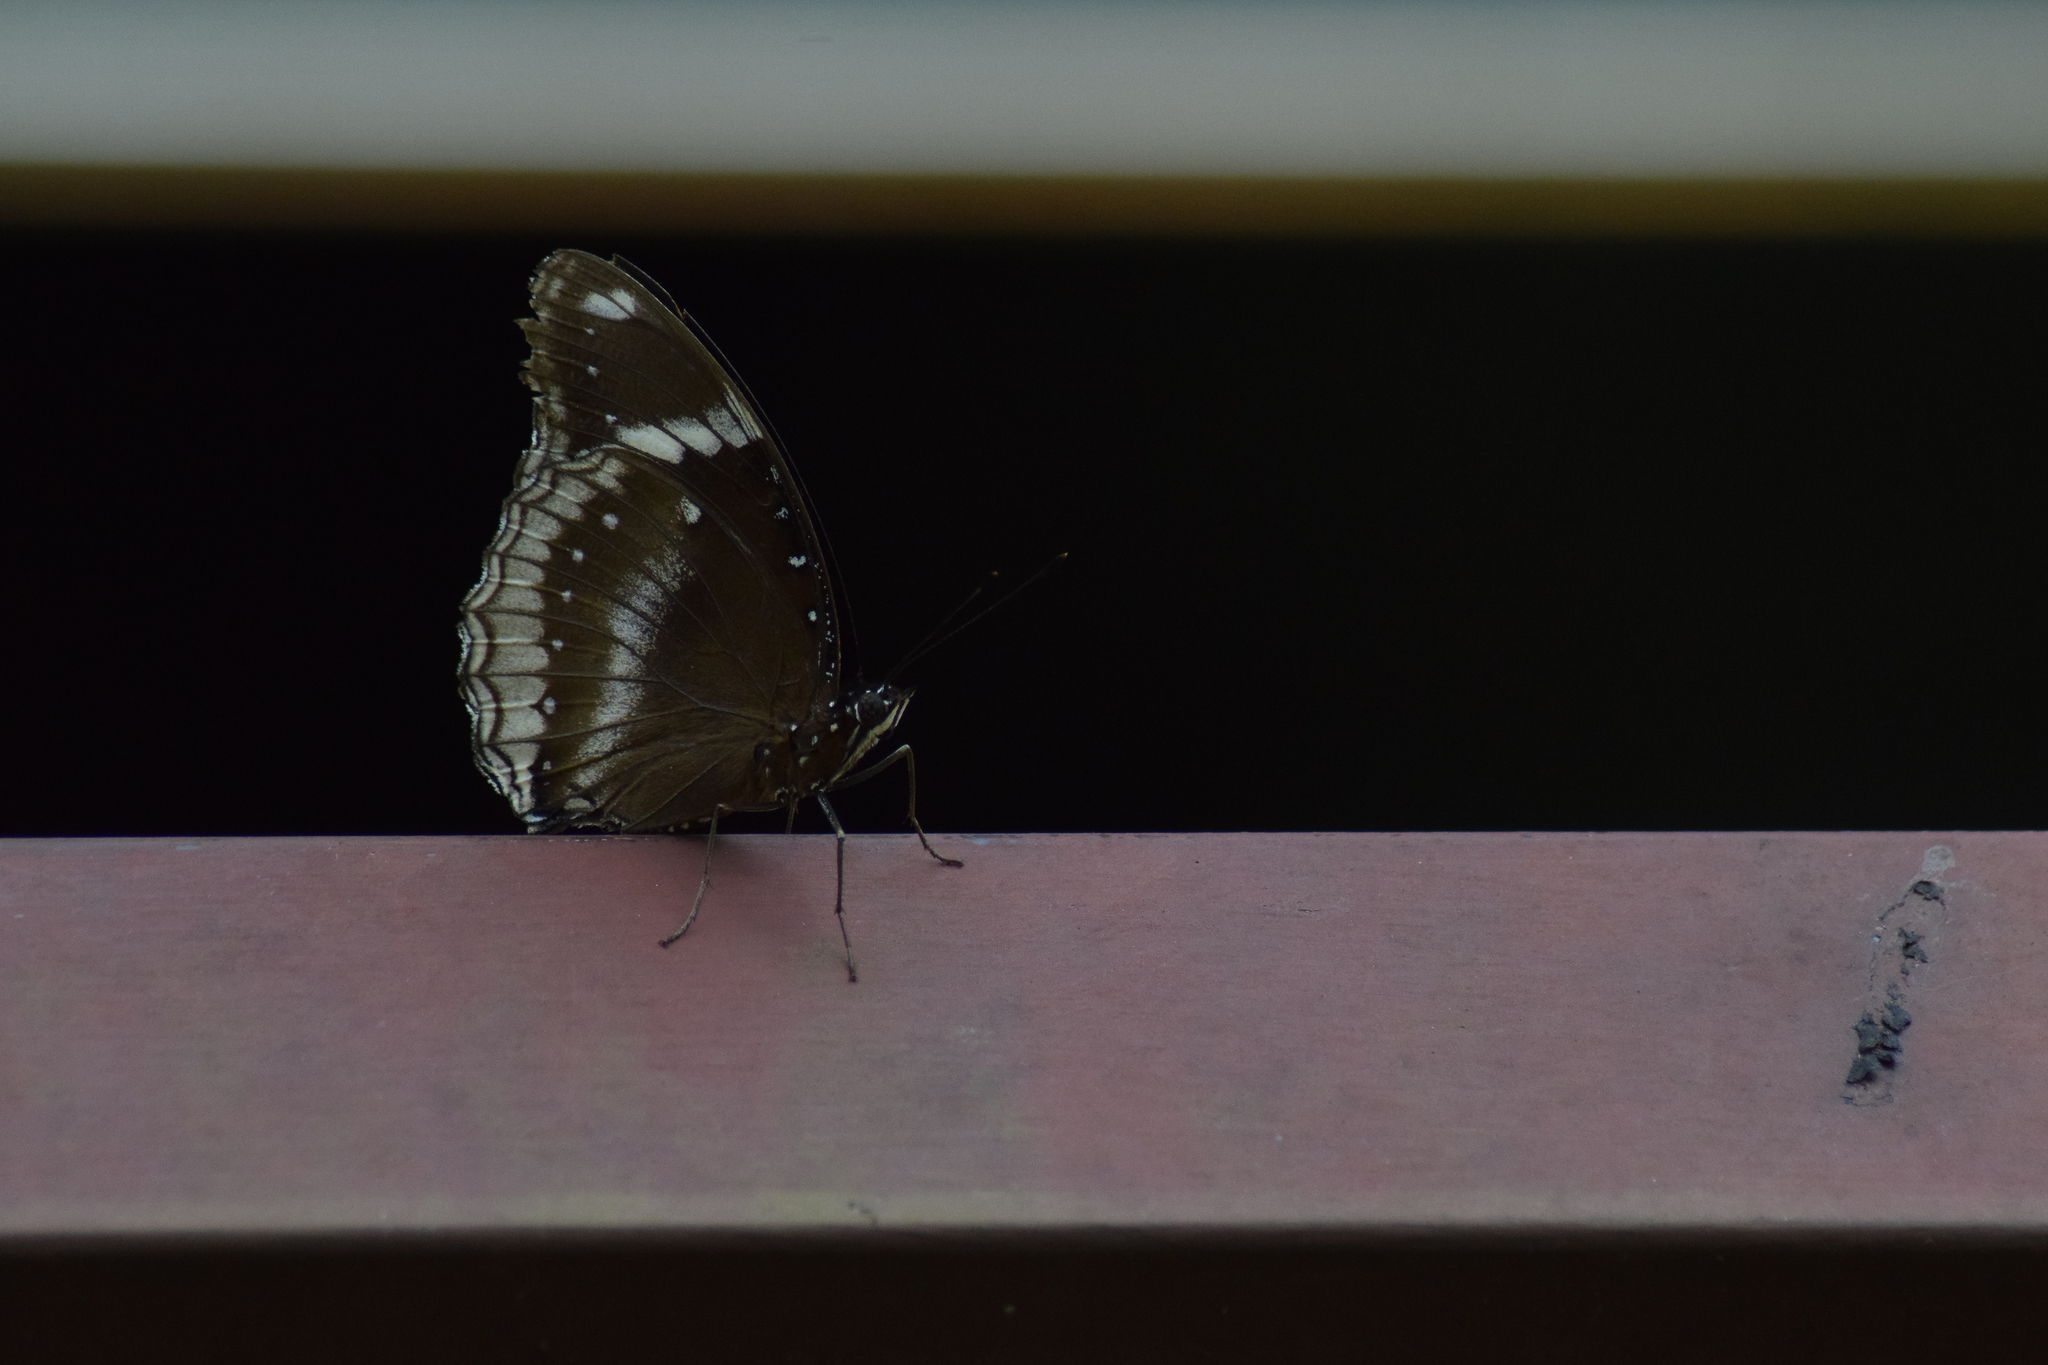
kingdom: Animalia
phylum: Arthropoda
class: Insecta
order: Lepidoptera
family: Nymphalidae
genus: Hypolimnas
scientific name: Hypolimnas bolina
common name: Great eggfly
